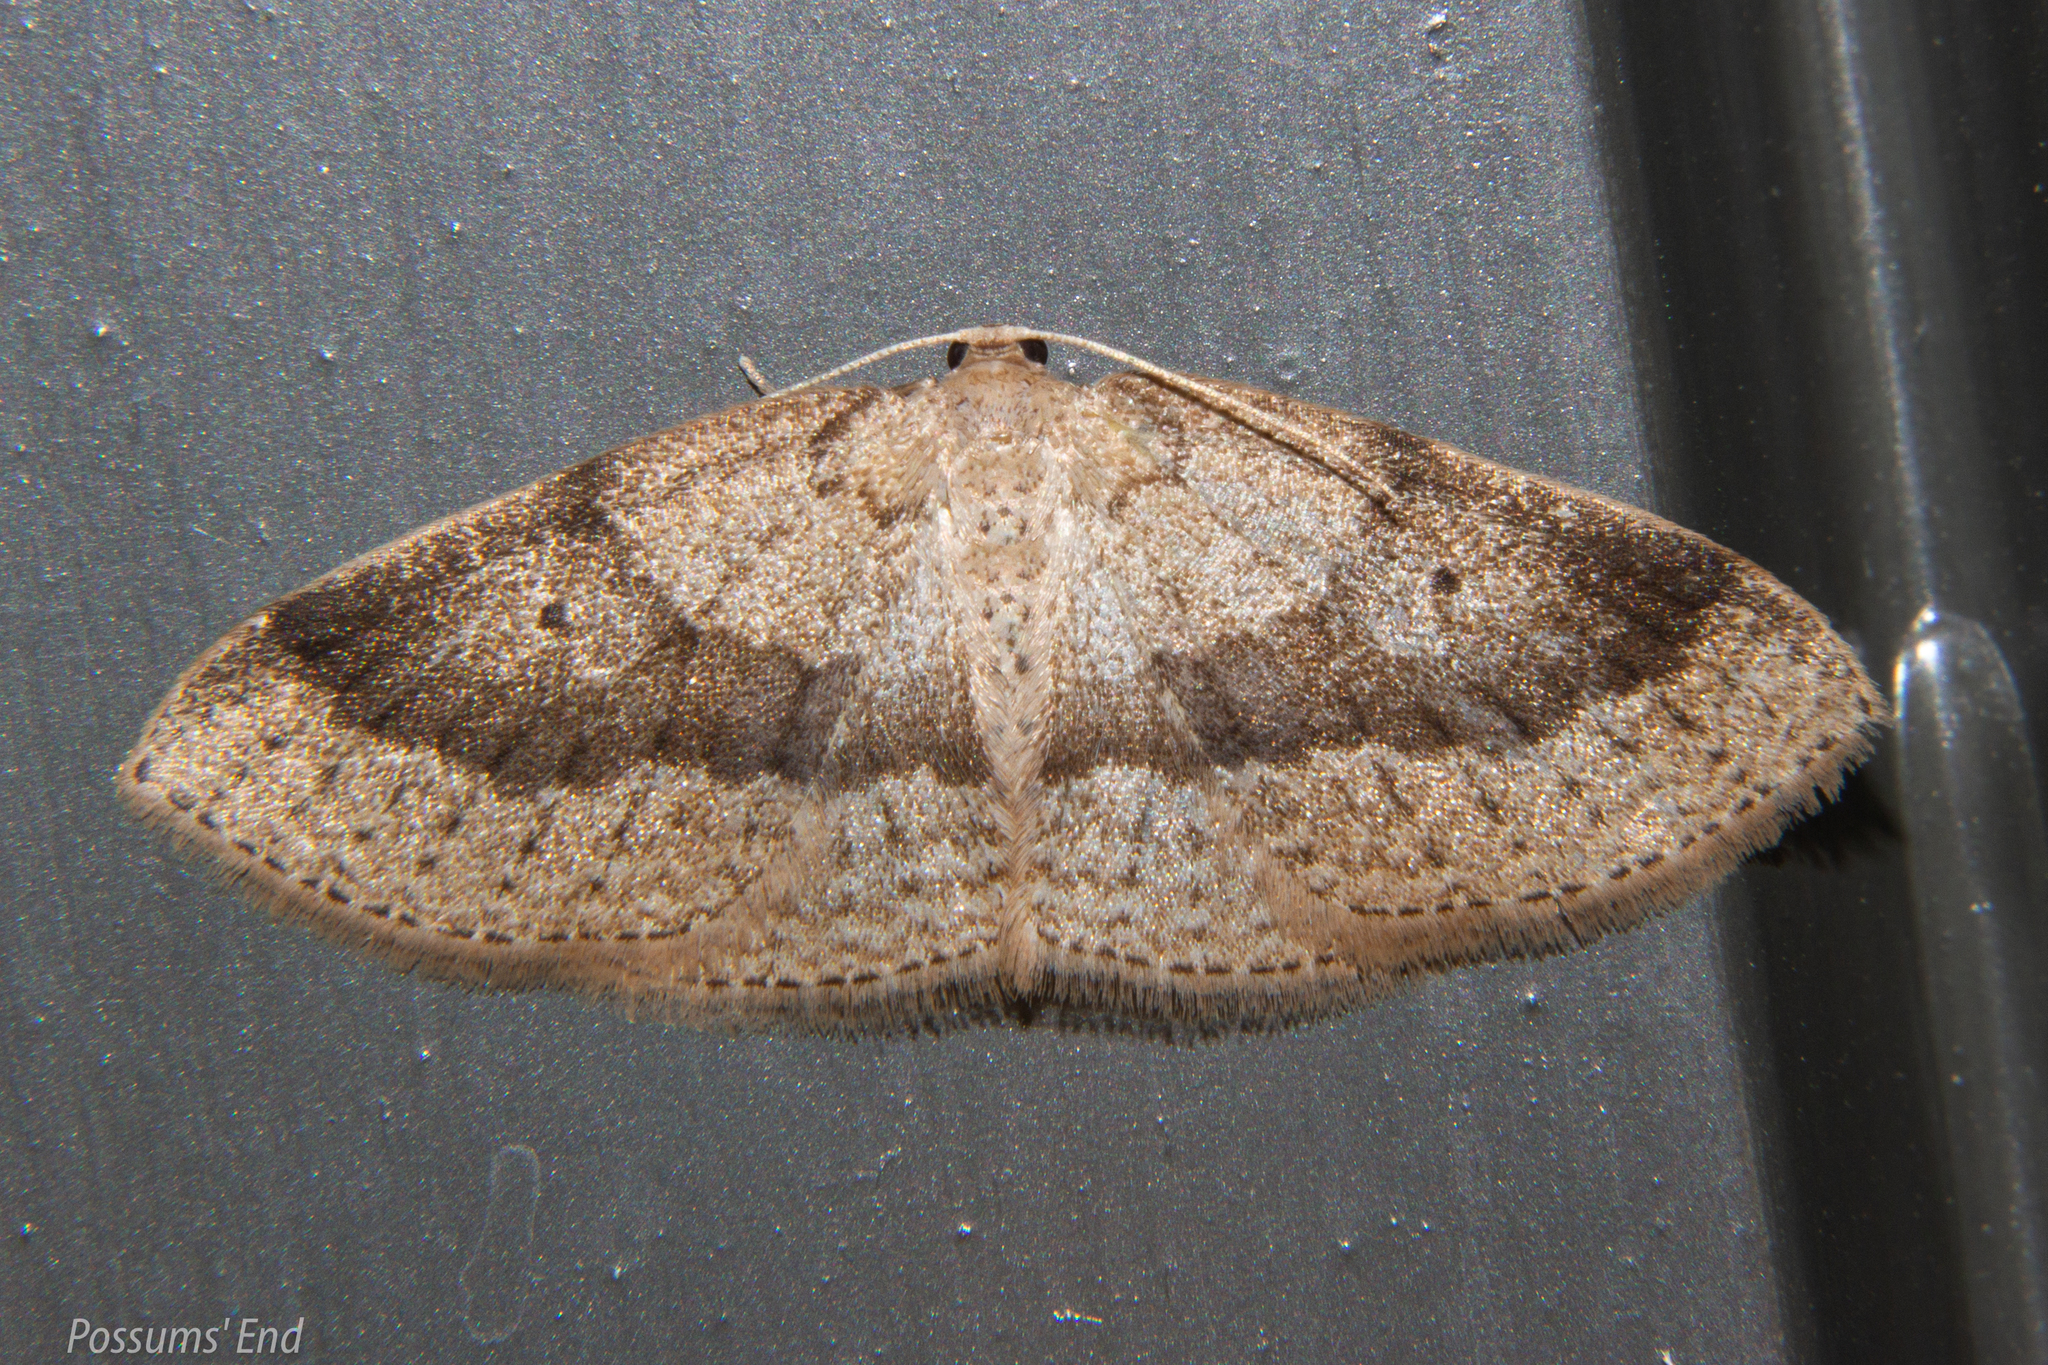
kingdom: Animalia
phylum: Arthropoda
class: Insecta
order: Lepidoptera
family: Geometridae
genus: Poecilasthena
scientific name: Poecilasthena schistaria
